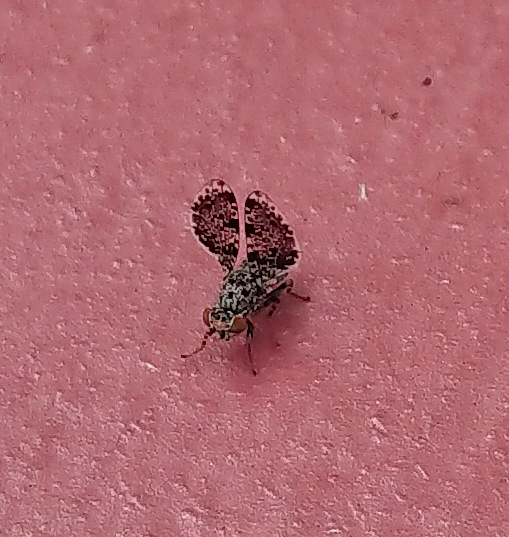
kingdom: Animalia
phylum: Arthropoda
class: Insecta
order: Diptera
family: Ulidiidae
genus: Callopistromyia
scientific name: Callopistromyia annulipes
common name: Peacock fly
